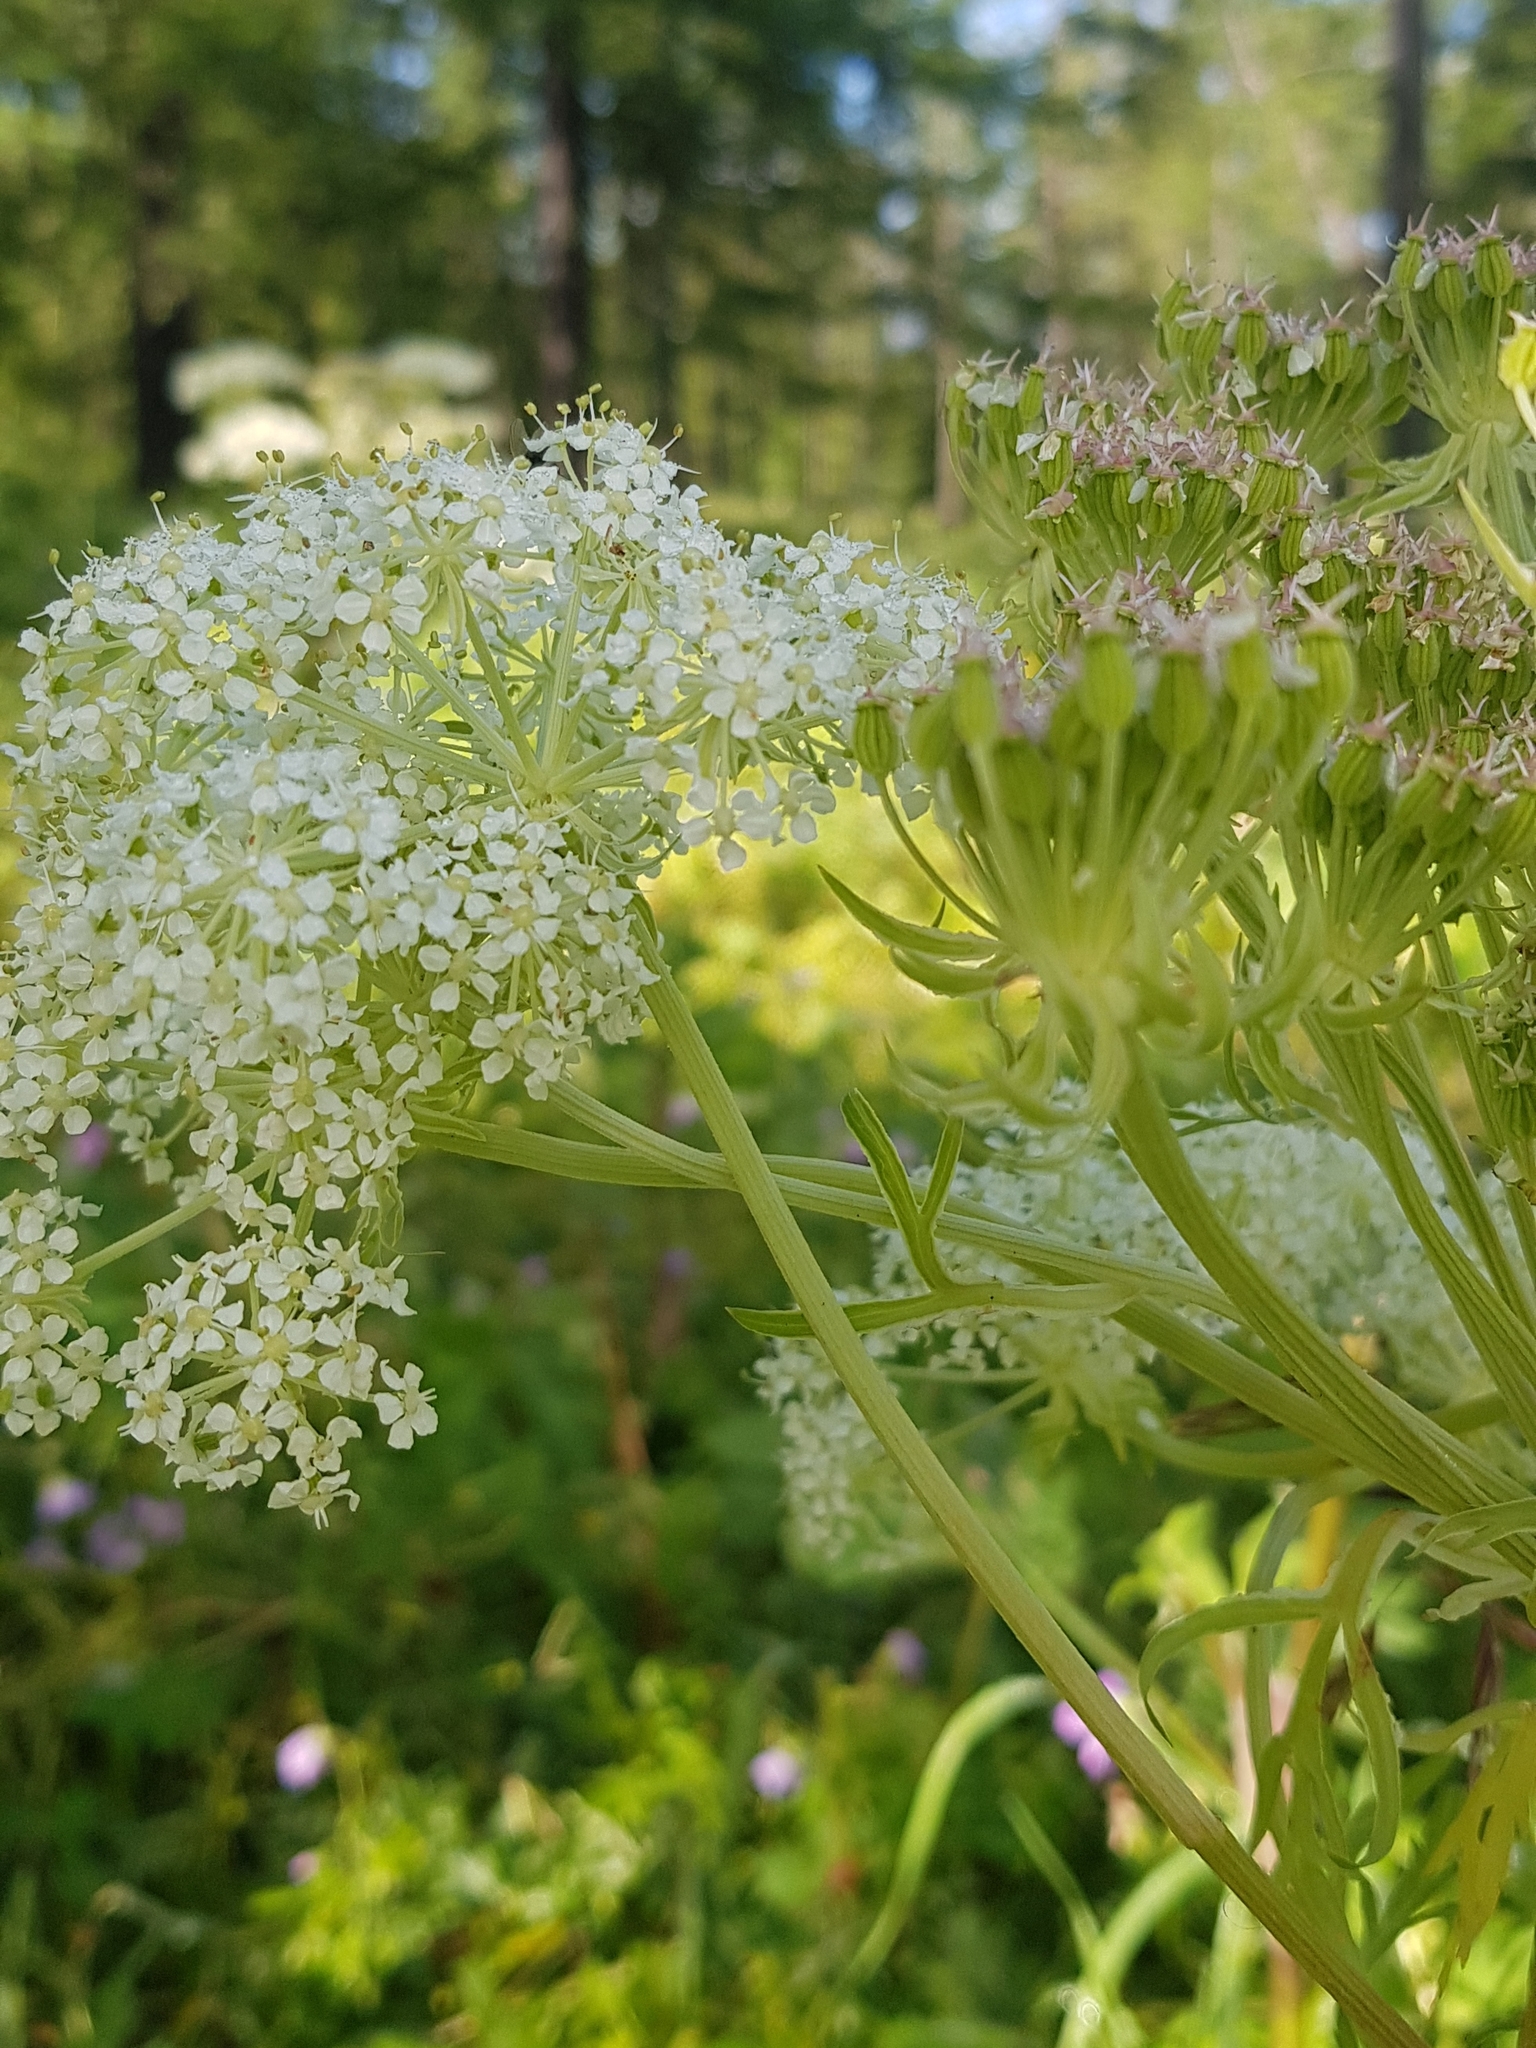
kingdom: Plantae
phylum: Tracheophyta
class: Magnoliopsida
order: Apiales
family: Apiaceae
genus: Pleurospermum
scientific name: Pleurospermum uralense
